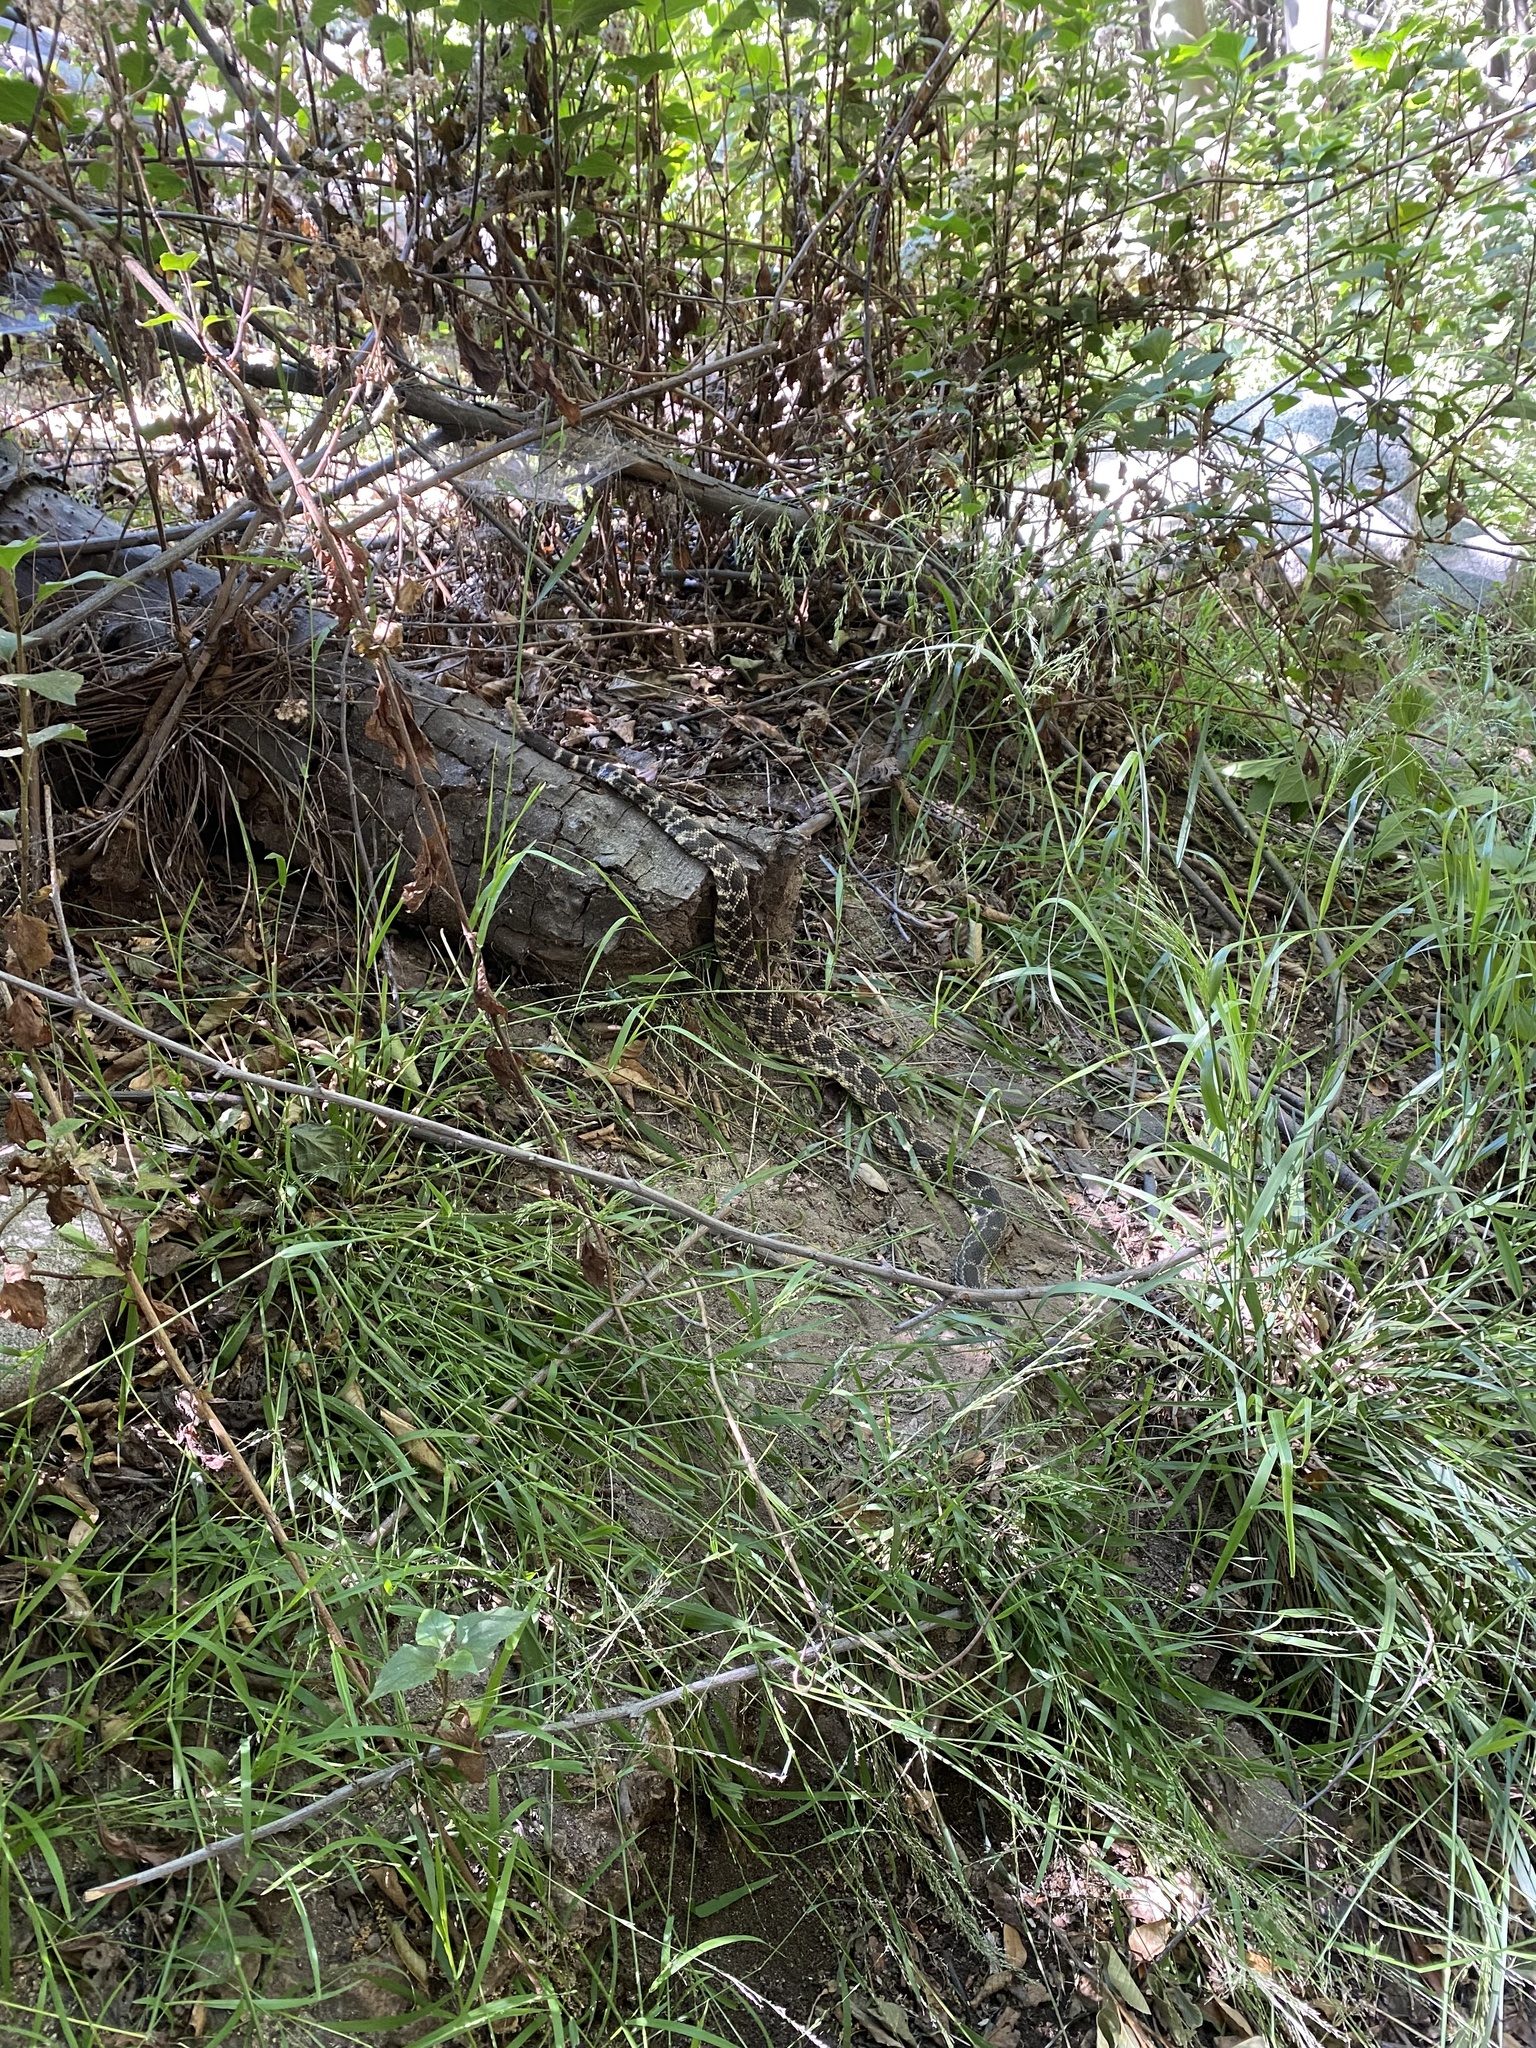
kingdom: Animalia
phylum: Chordata
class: Squamata
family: Viperidae
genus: Crotalus
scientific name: Crotalus oreganus
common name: Abyssus
